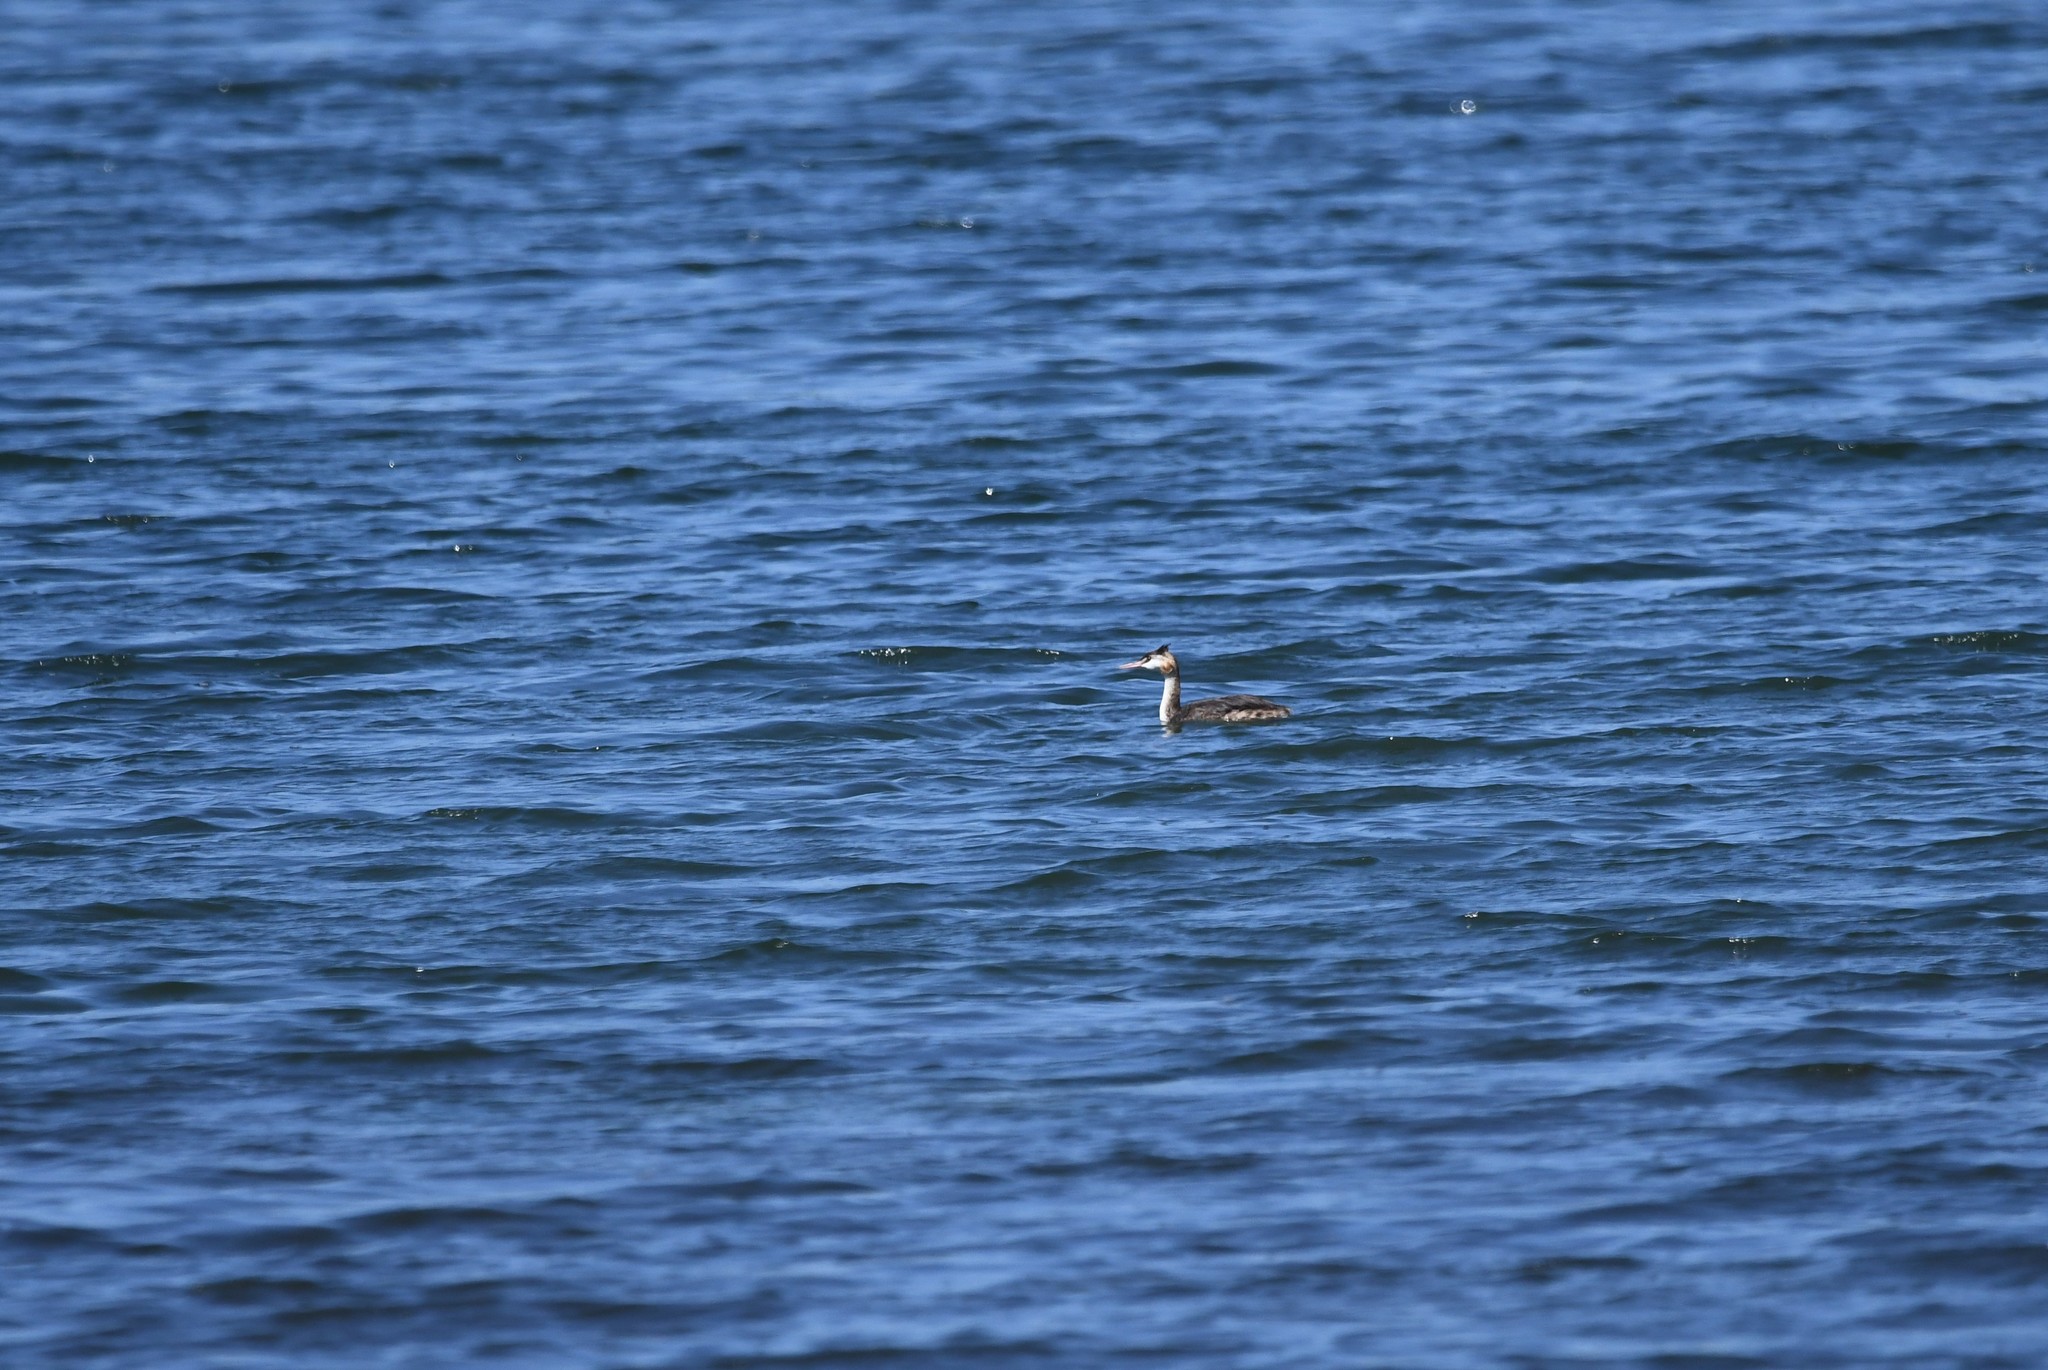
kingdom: Animalia
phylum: Chordata
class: Aves
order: Podicipediformes
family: Podicipedidae
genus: Podiceps
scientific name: Podiceps cristatus
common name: Great crested grebe
